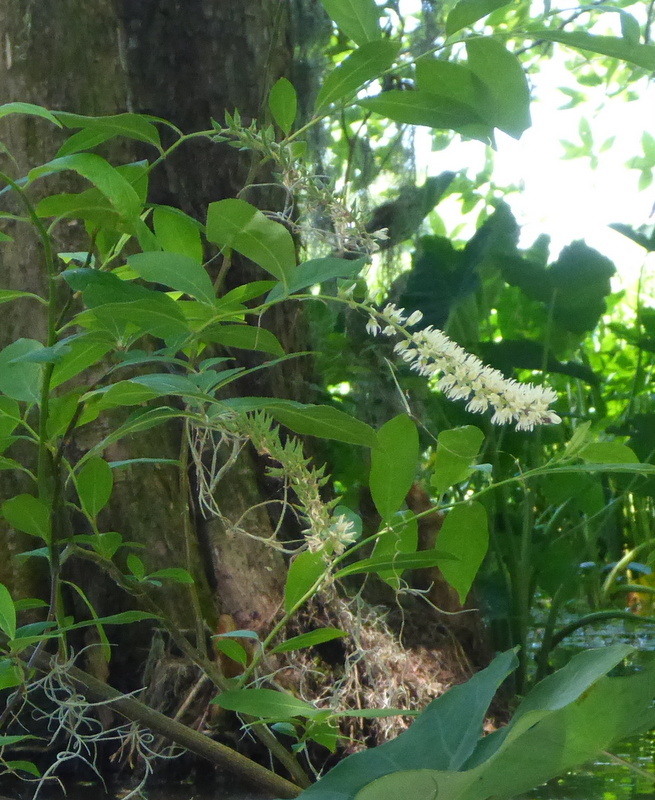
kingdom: Plantae
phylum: Tracheophyta
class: Magnoliopsida
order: Saxifragales
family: Iteaceae
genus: Itea
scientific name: Itea virginica
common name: Sweetspire
